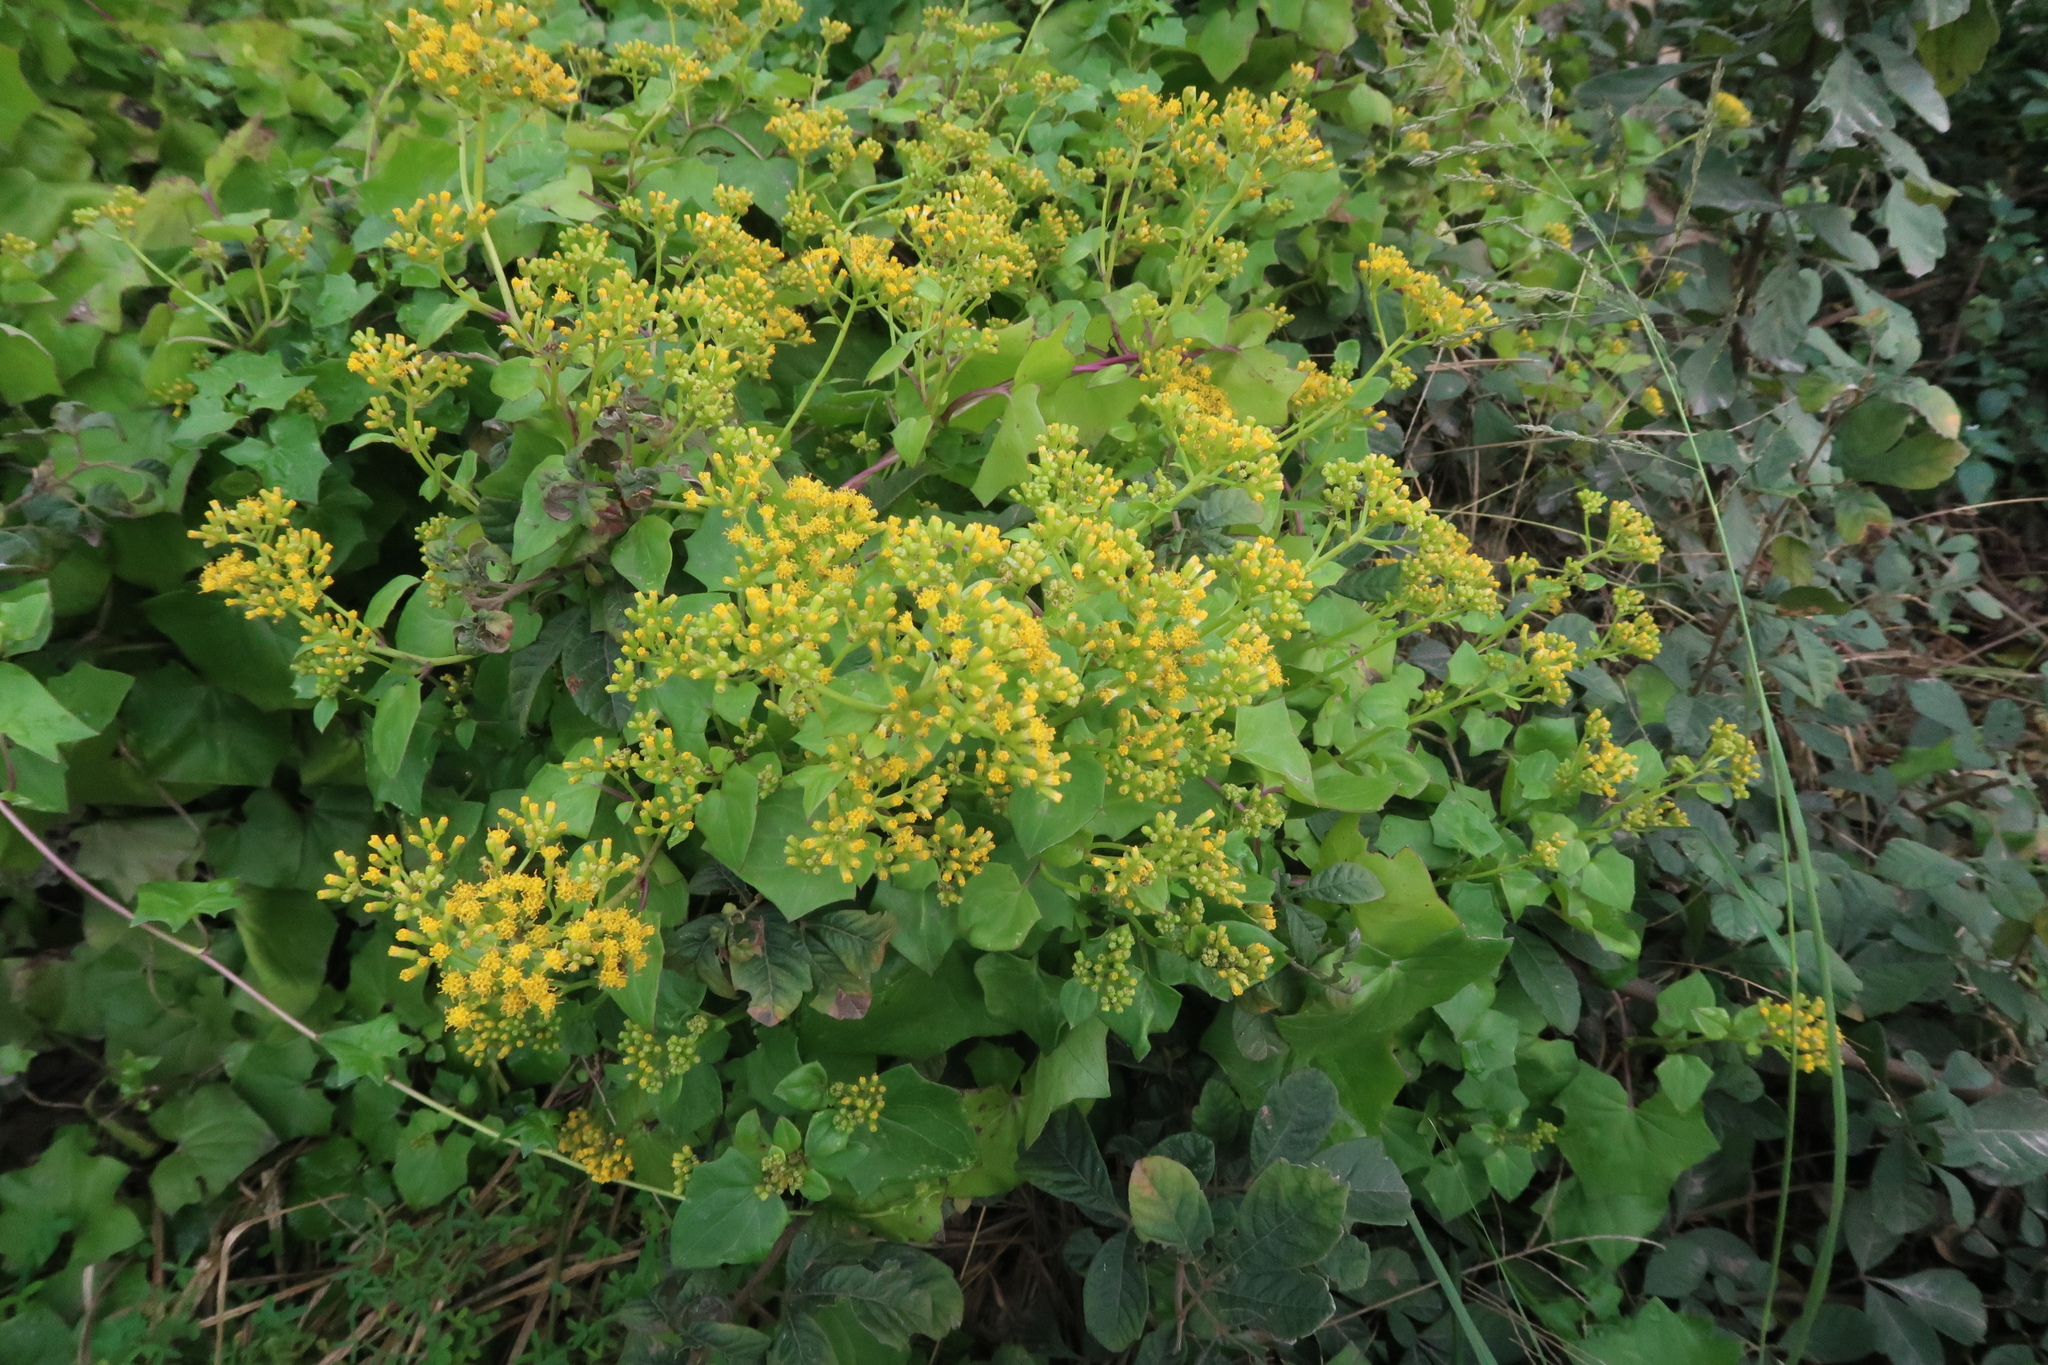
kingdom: Plantae
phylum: Tracheophyta
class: Magnoliopsida
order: Asterales
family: Asteraceae
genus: Delairea
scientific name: Delairea odorata
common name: Cape-ivy
